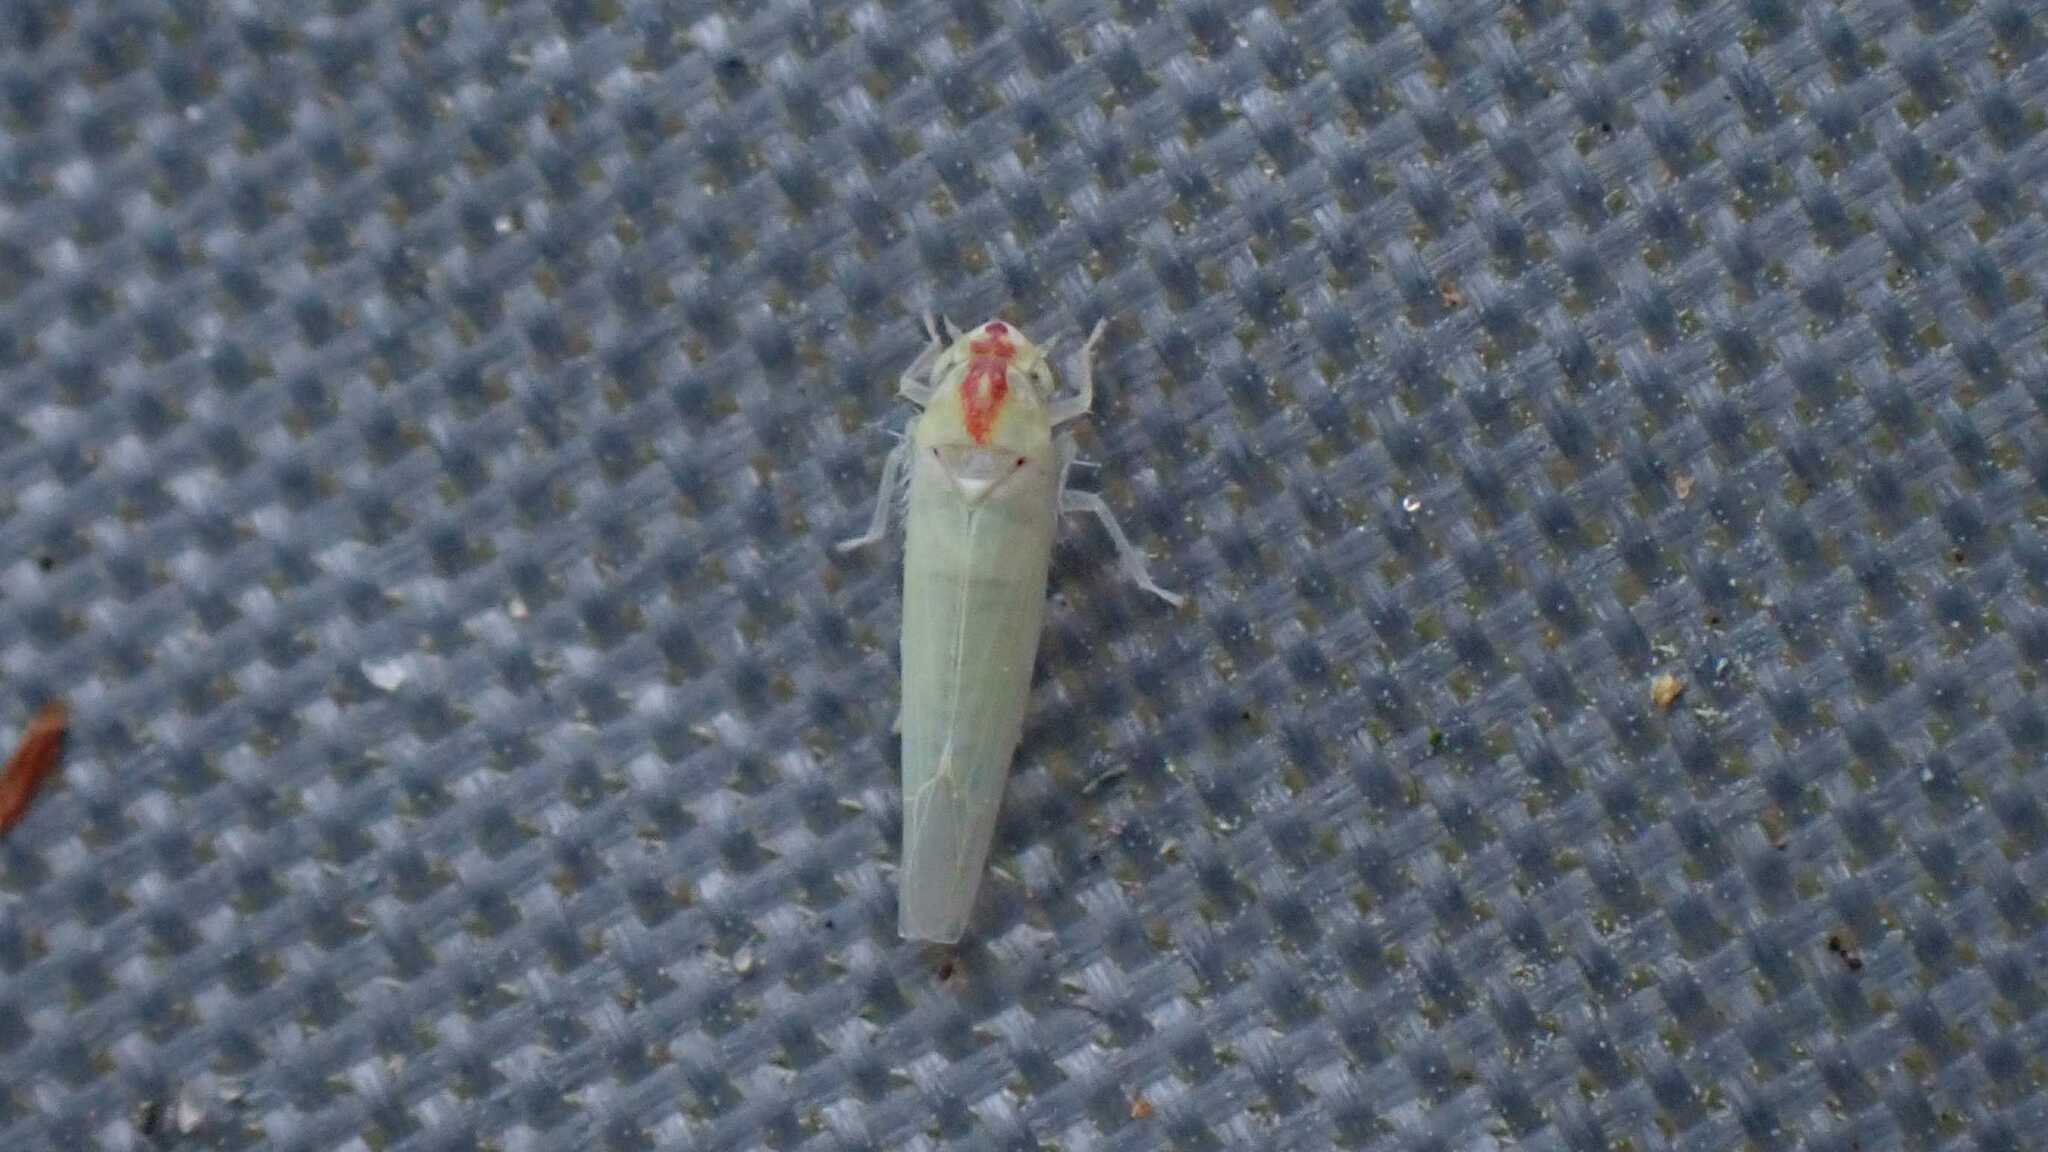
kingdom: Animalia
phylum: Arthropoda
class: Insecta
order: Hemiptera
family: Cicadellidae
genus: Zygina
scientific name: Zygina nivea
